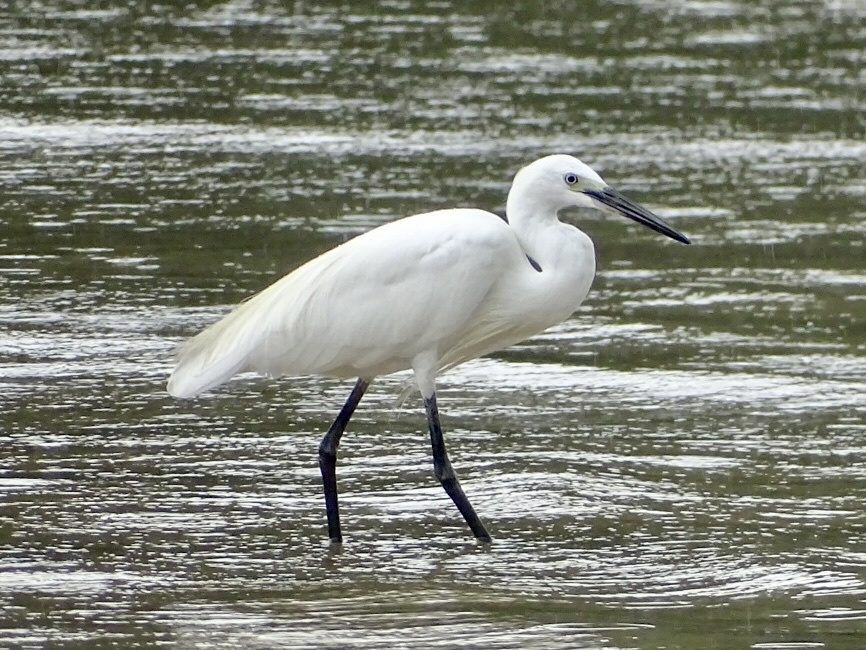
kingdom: Animalia
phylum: Chordata
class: Aves
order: Pelecaniformes
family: Ardeidae
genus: Egretta
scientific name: Egretta garzetta
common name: Little egret
